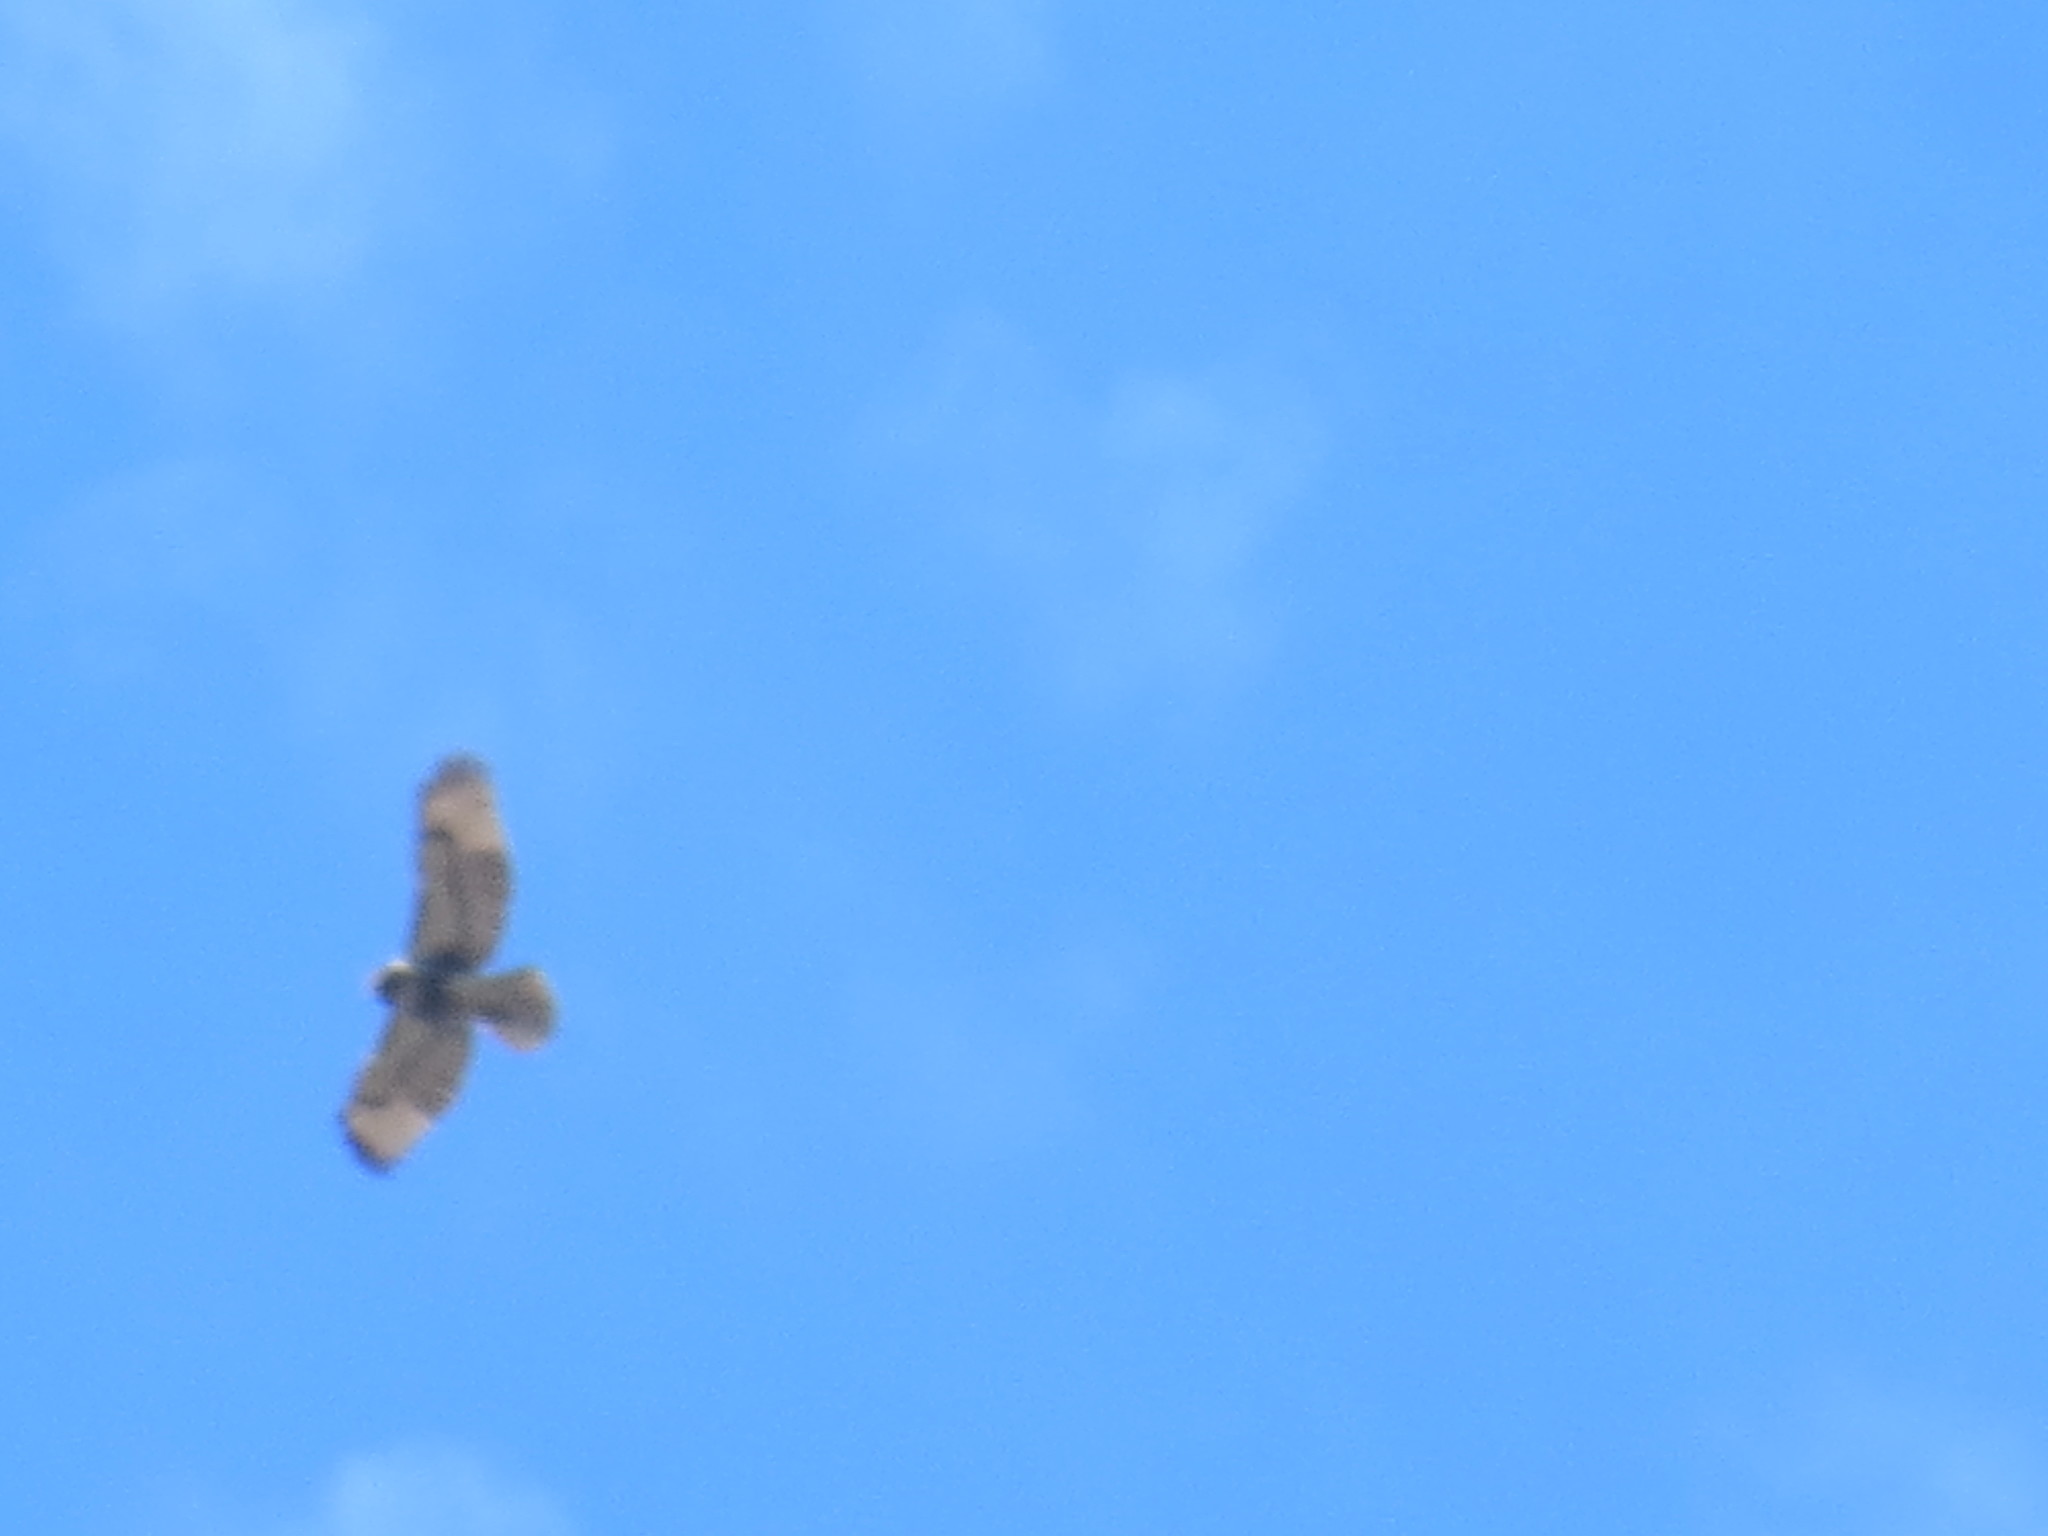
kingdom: Animalia
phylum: Chordata
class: Aves
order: Accipitriformes
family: Accipitridae
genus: Buteo
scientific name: Buteo jamaicensis
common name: Red-tailed hawk
